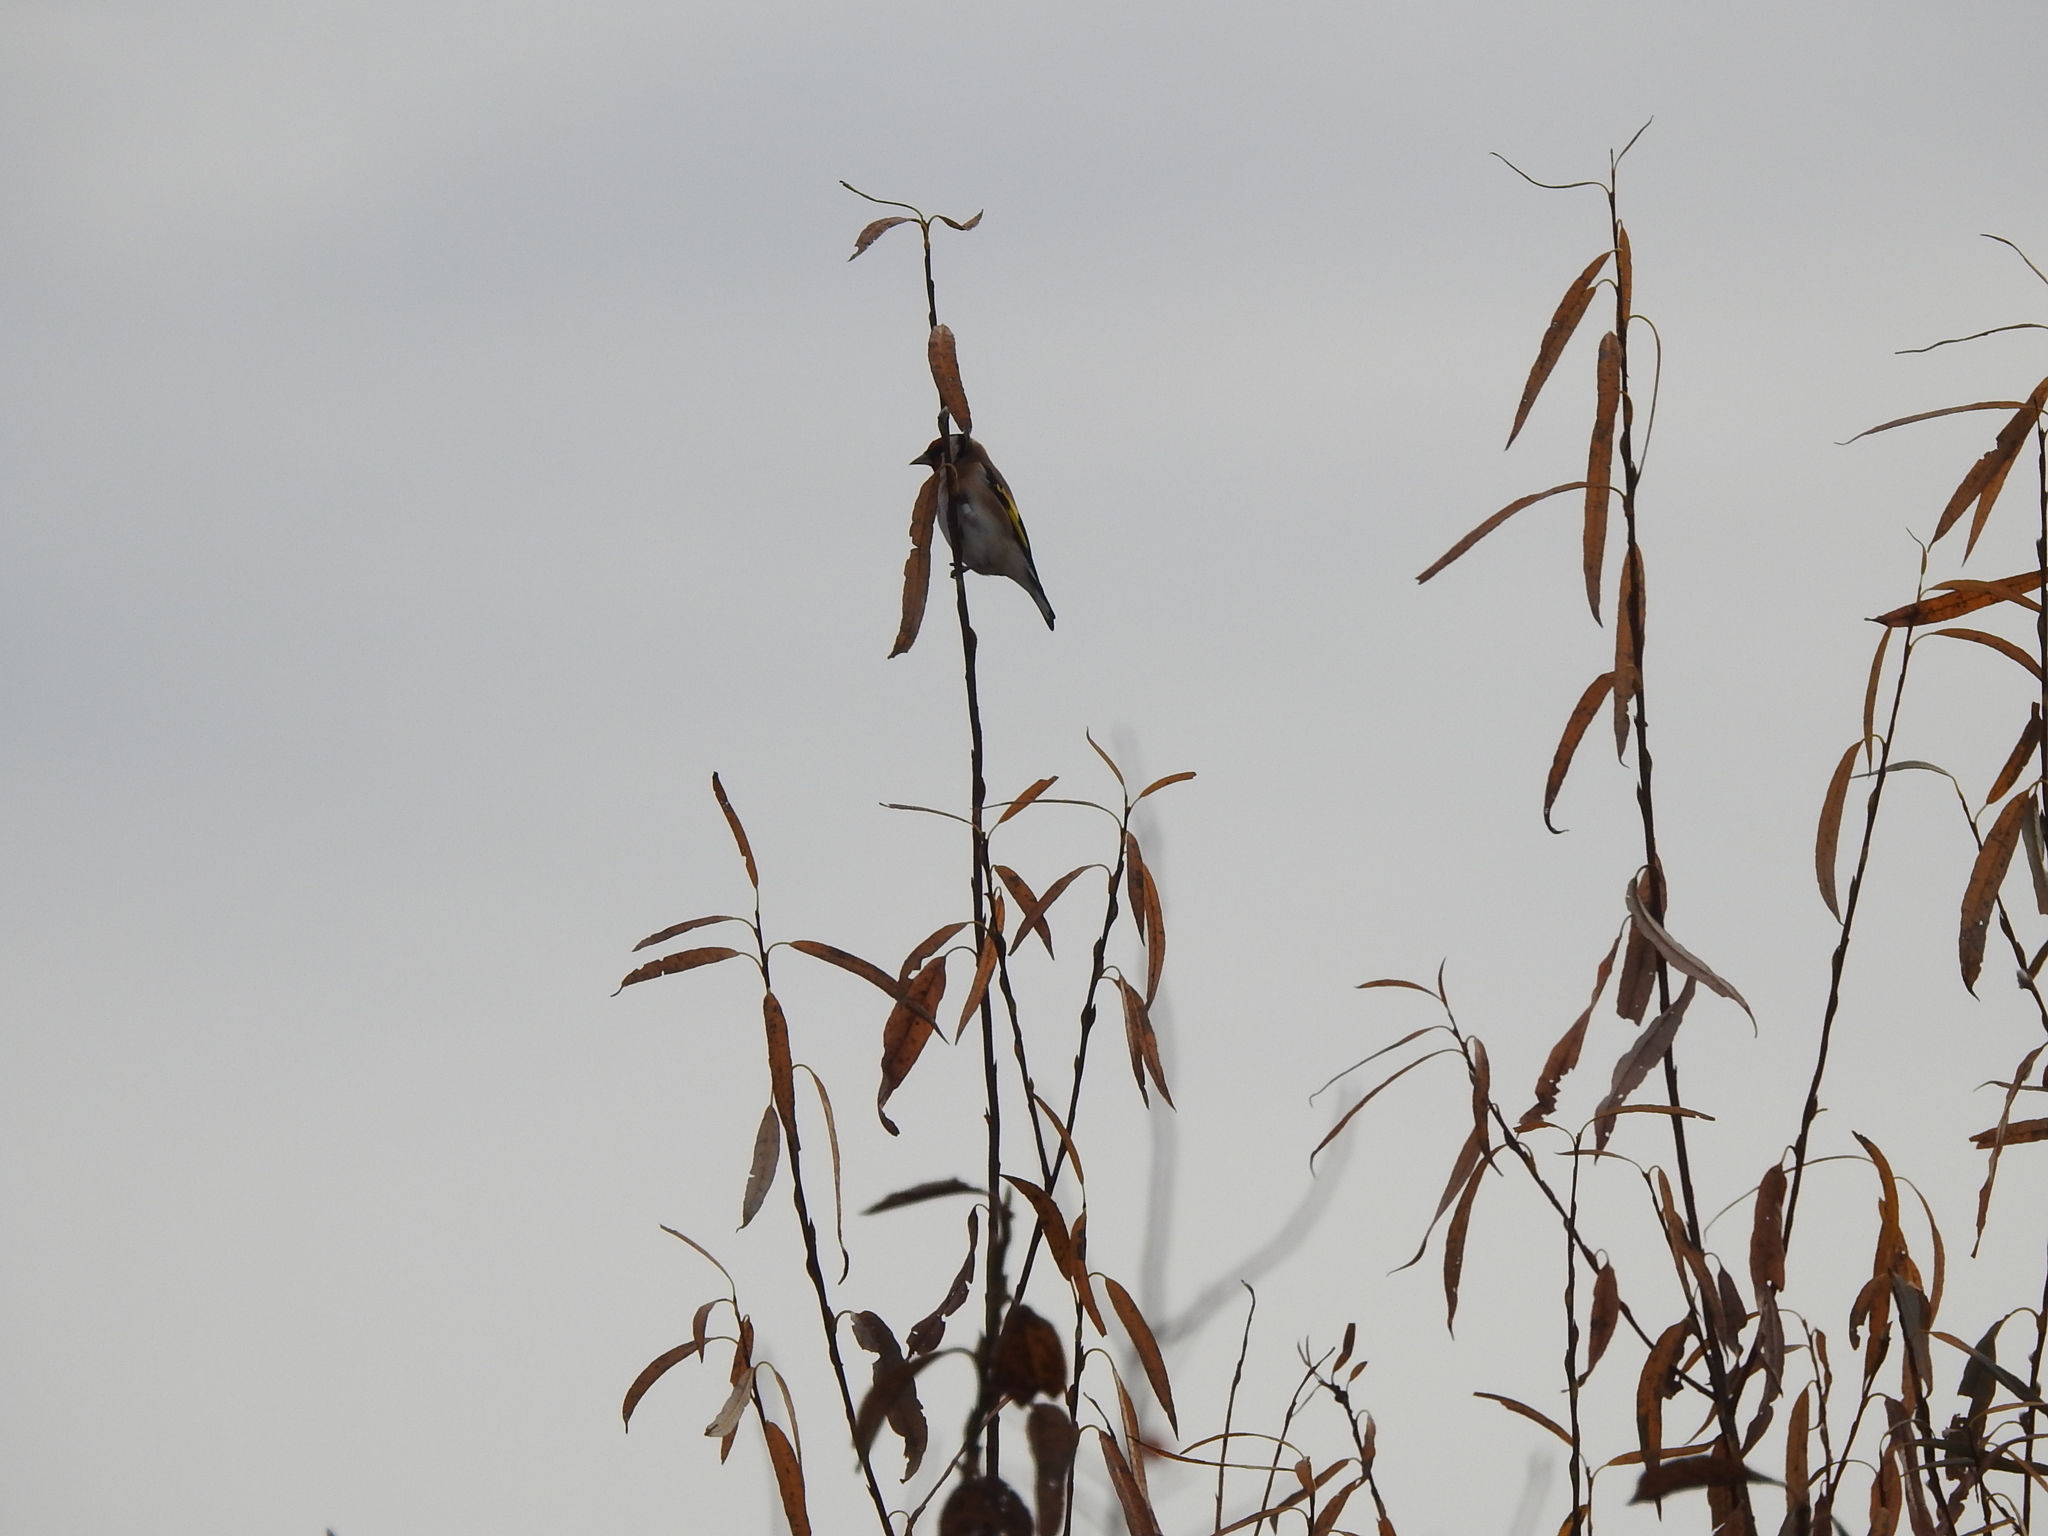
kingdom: Animalia
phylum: Chordata
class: Aves
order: Passeriformes
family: Fringillidae
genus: Carduelis
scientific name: Carduelis carduelis
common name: European goldfinch
